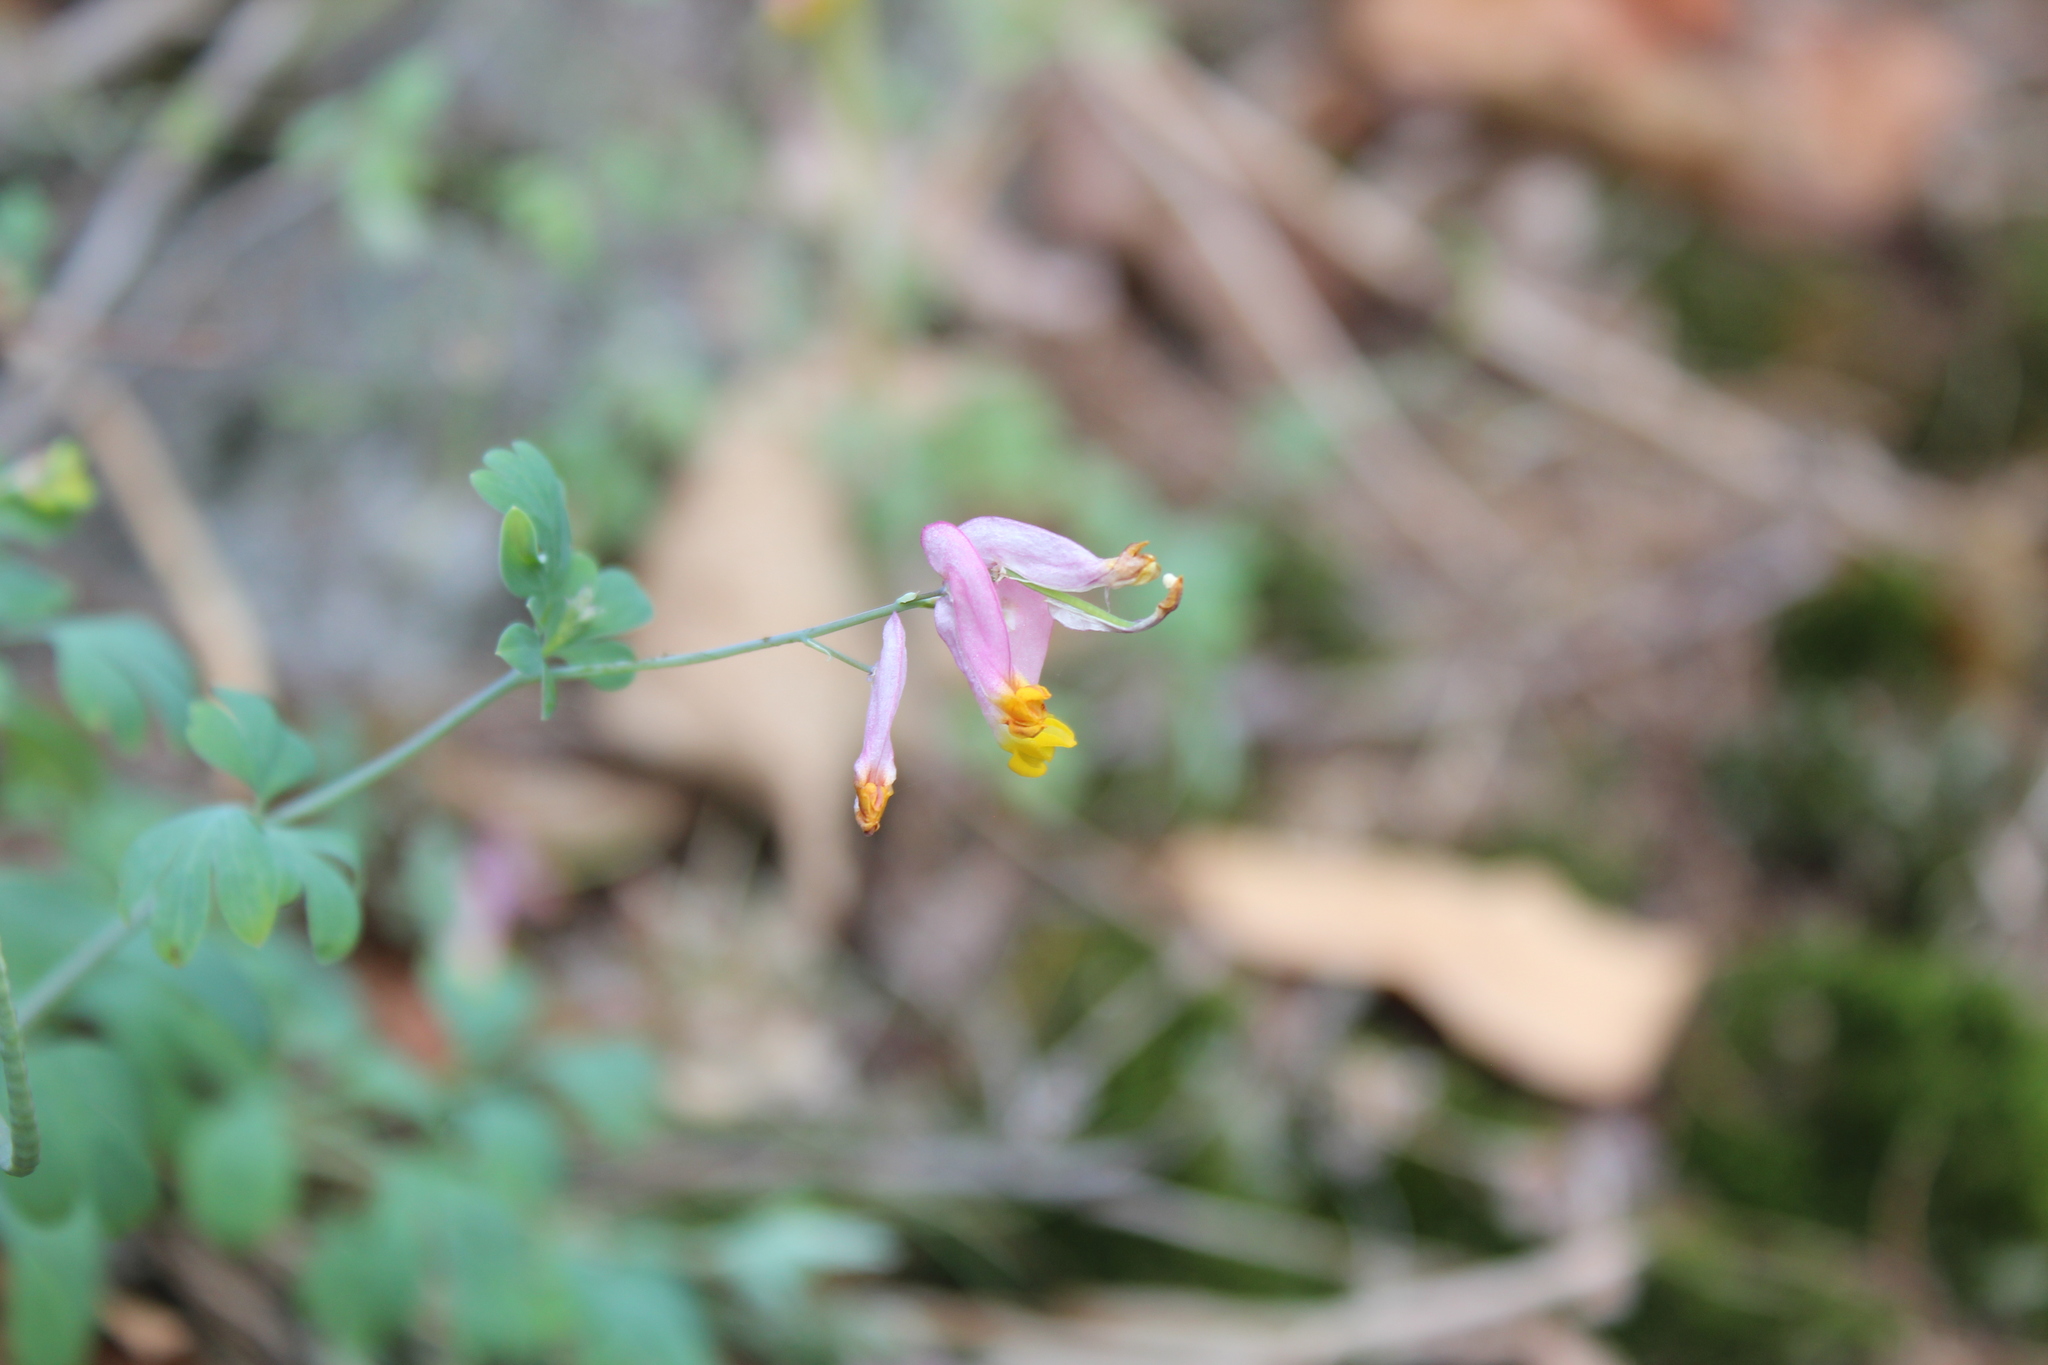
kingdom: Plantae
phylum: Tracheophyta
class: Magnoliopsida
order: Ranunculales
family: Papaveraceae
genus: Capnoides
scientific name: Capnoides sempervirens
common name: Rock harlequin
